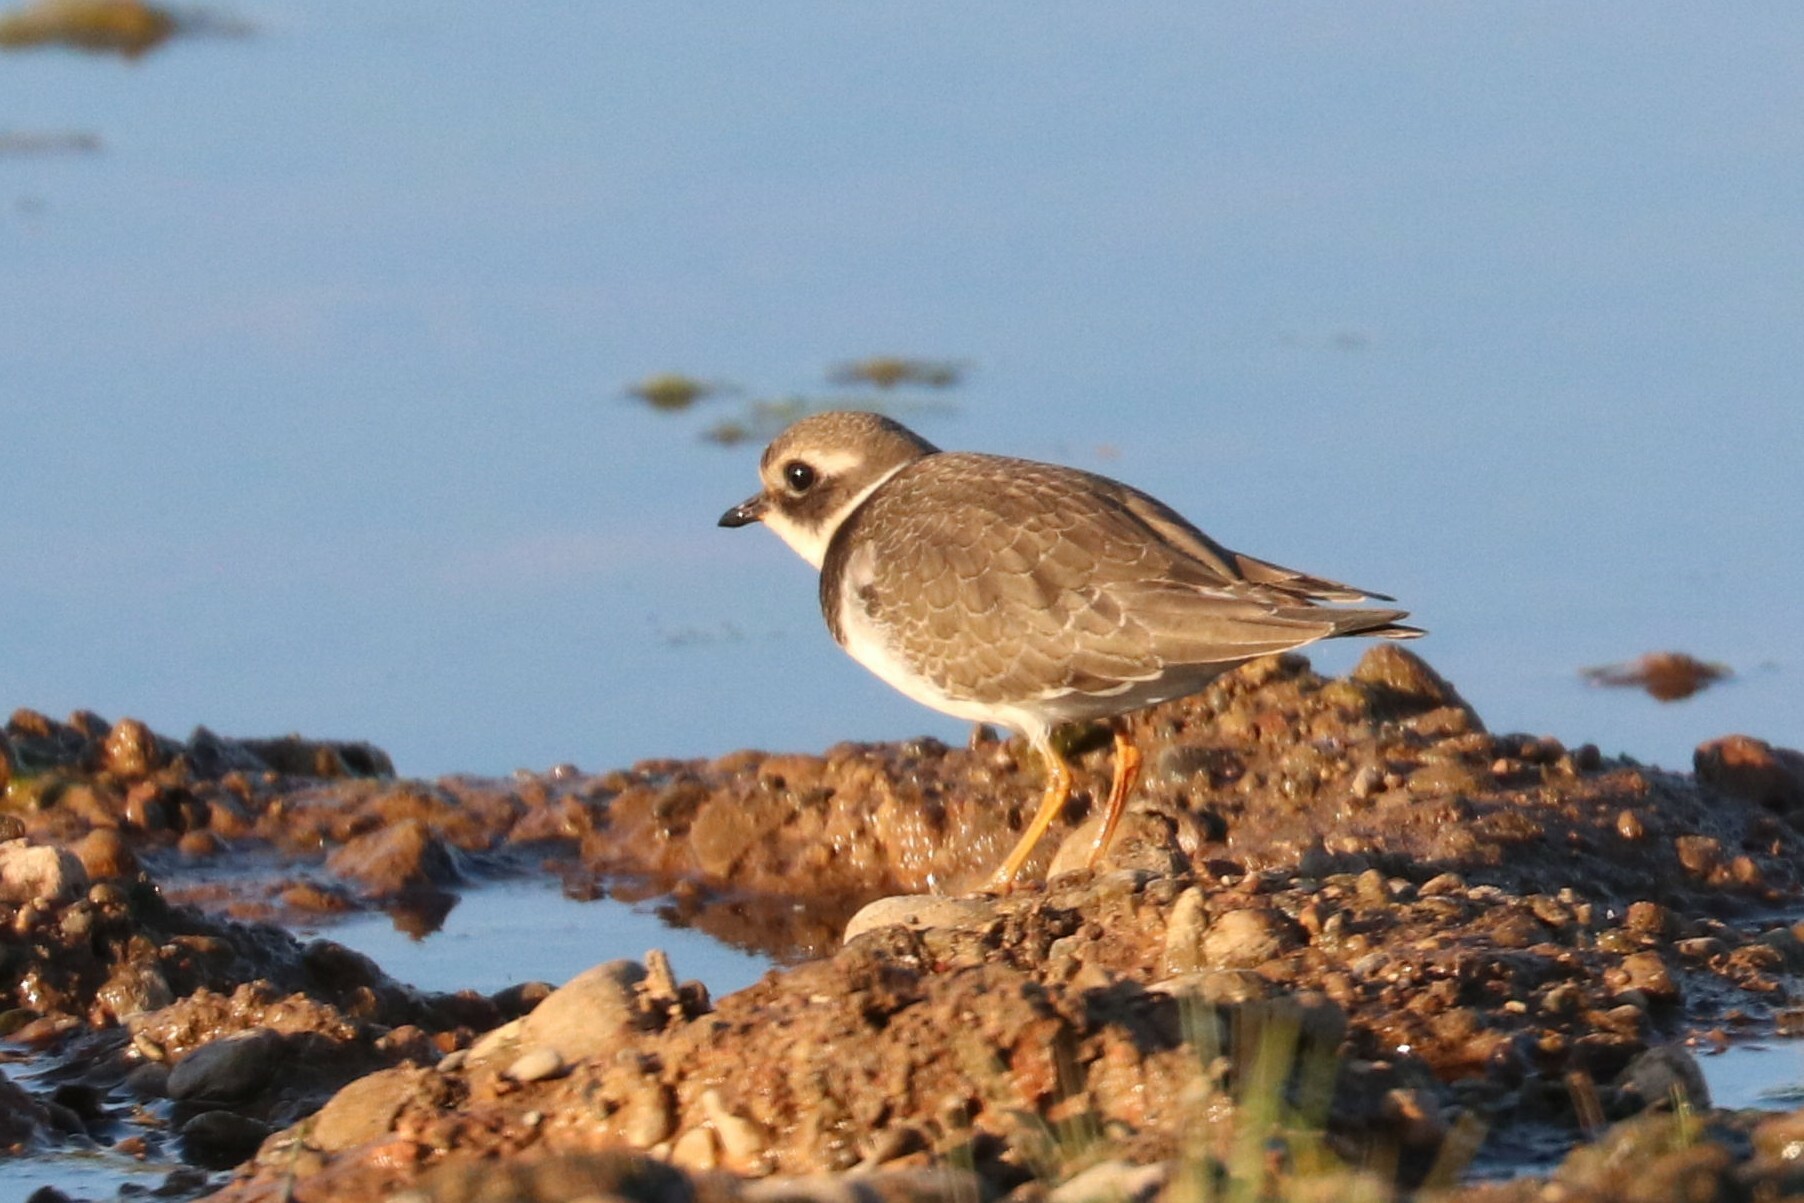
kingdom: Animalia
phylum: Chordata
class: Aves
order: Charadriiformes
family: Charadriidae
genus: Charadrius
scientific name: Charadrius hiaticula
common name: Common ringed plover
